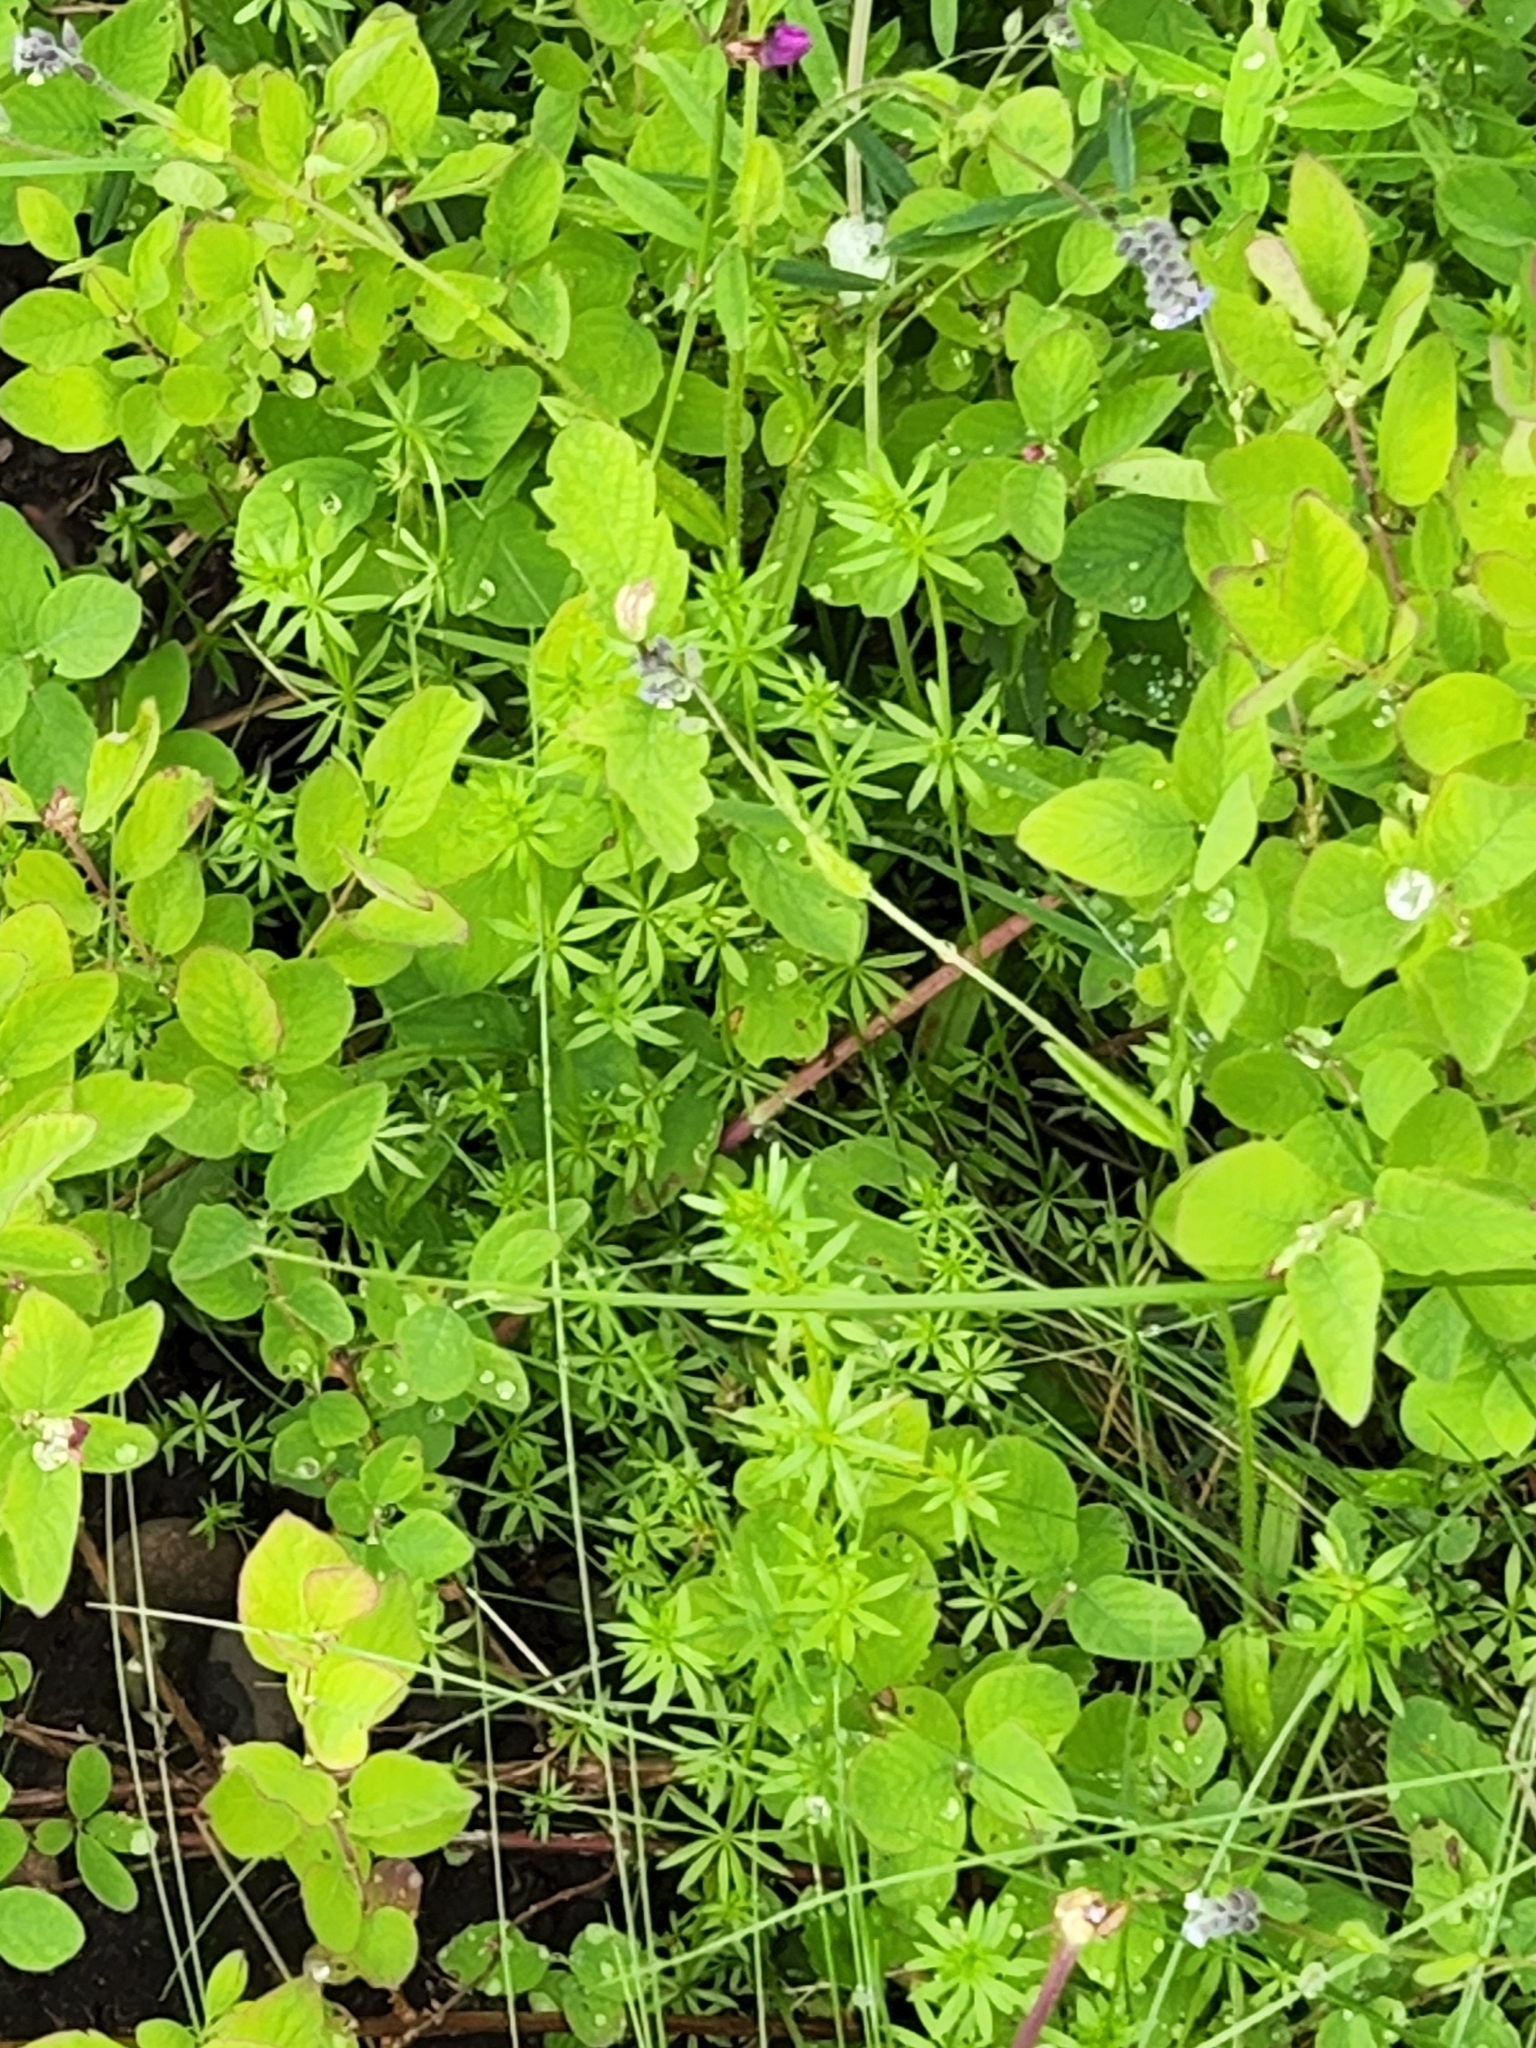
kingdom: Plantae
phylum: Tracheophyta
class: Magnoliopsida
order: Gentianales
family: Rubiaceae
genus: Galium
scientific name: Galium aparine
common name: Cleavers
